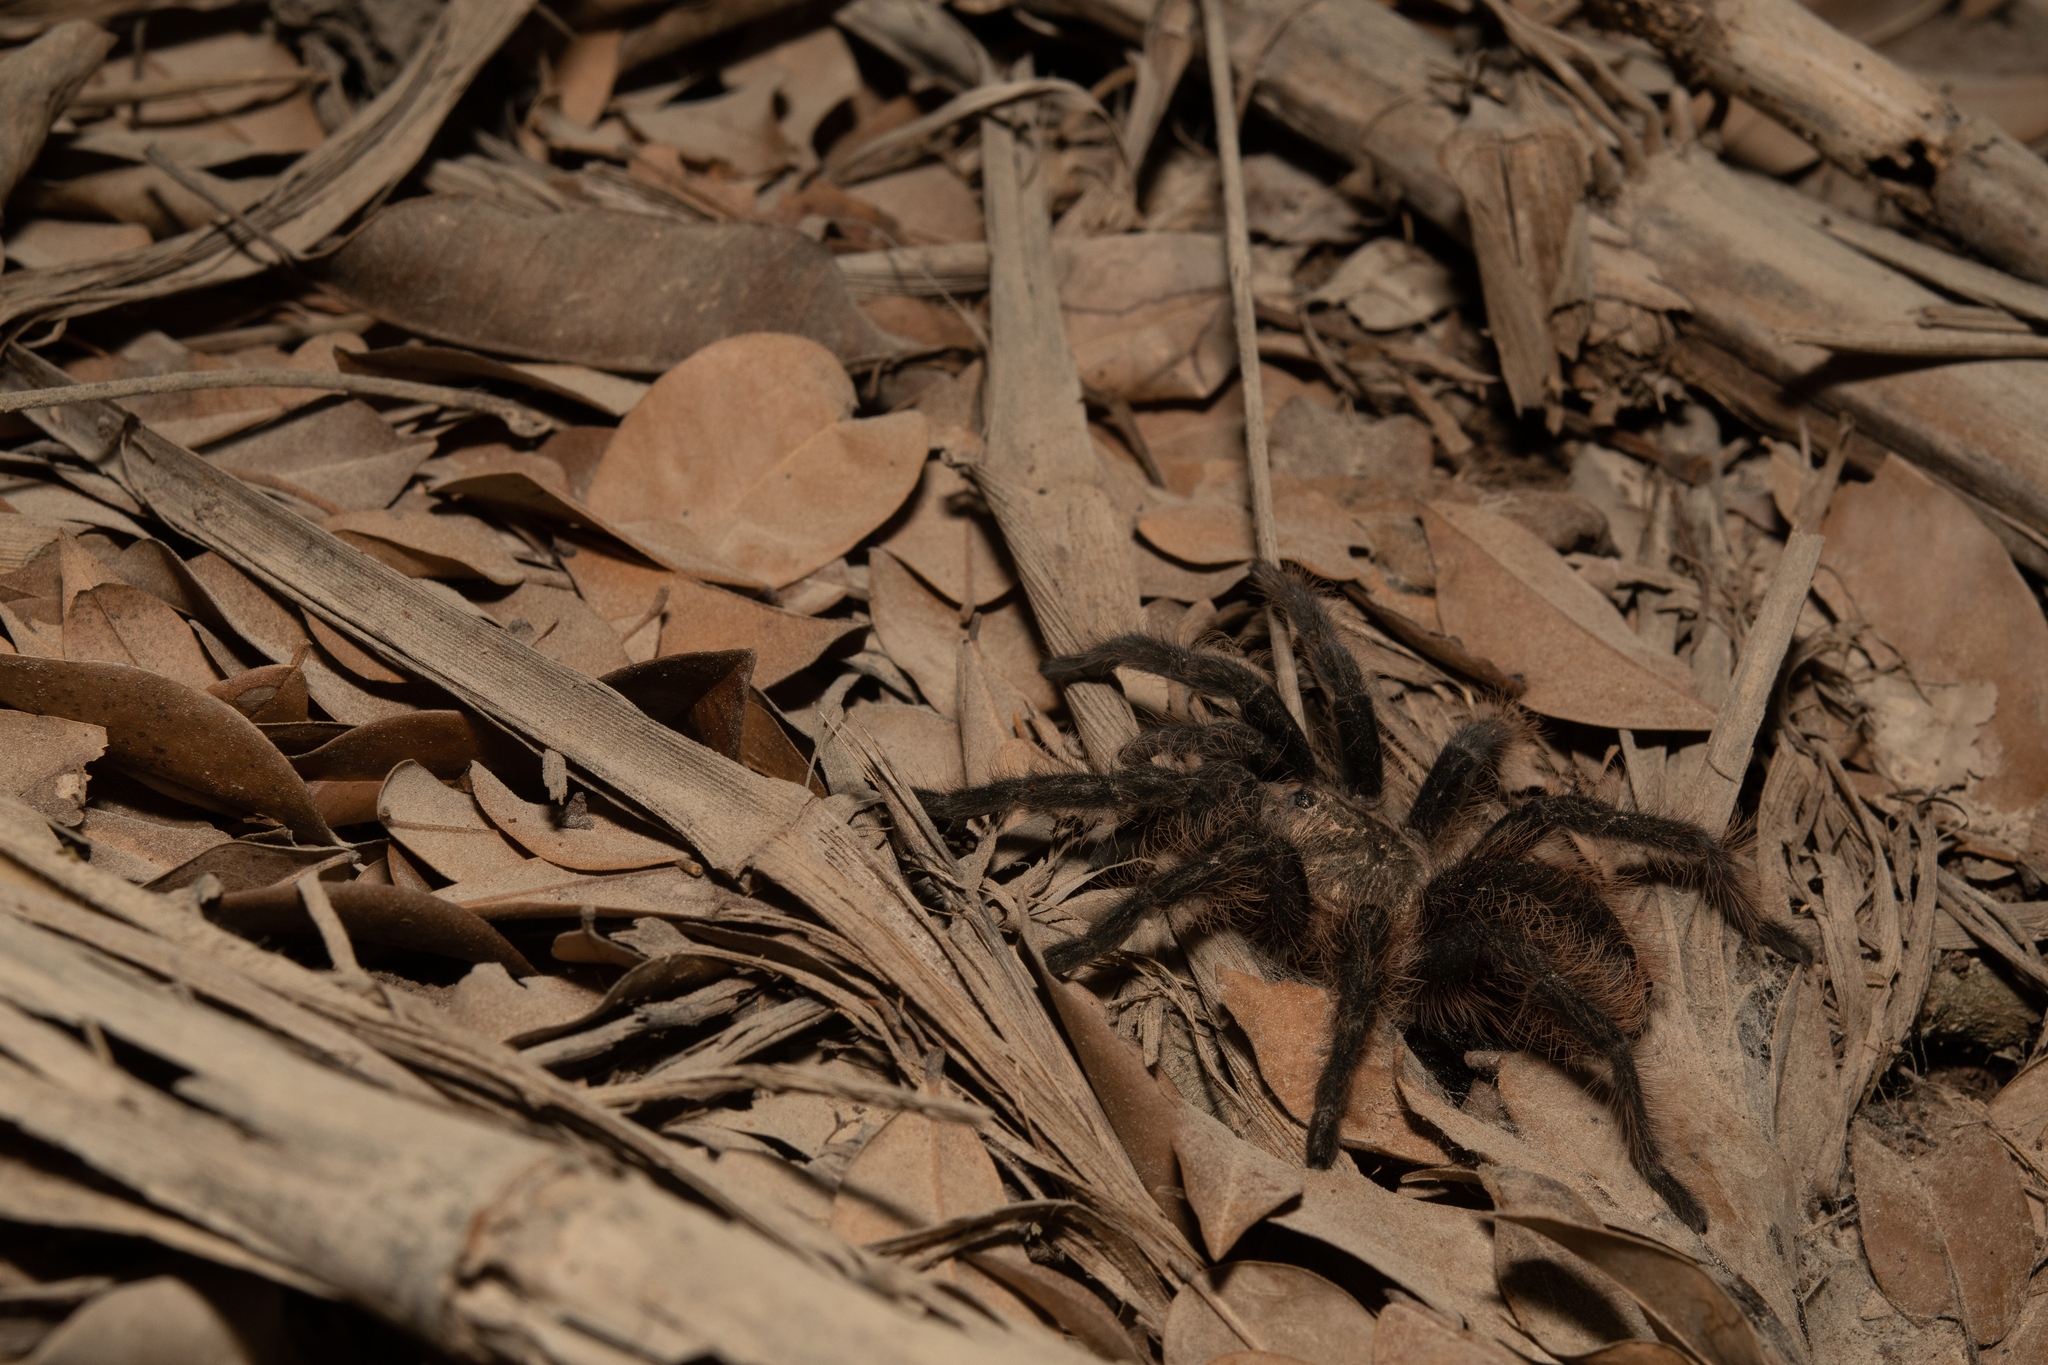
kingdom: Animalia
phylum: Arthropoda
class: Arachnida
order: Araneae
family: Theraphosidae
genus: Tliltocatl
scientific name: Tliltocatl albopilosus
